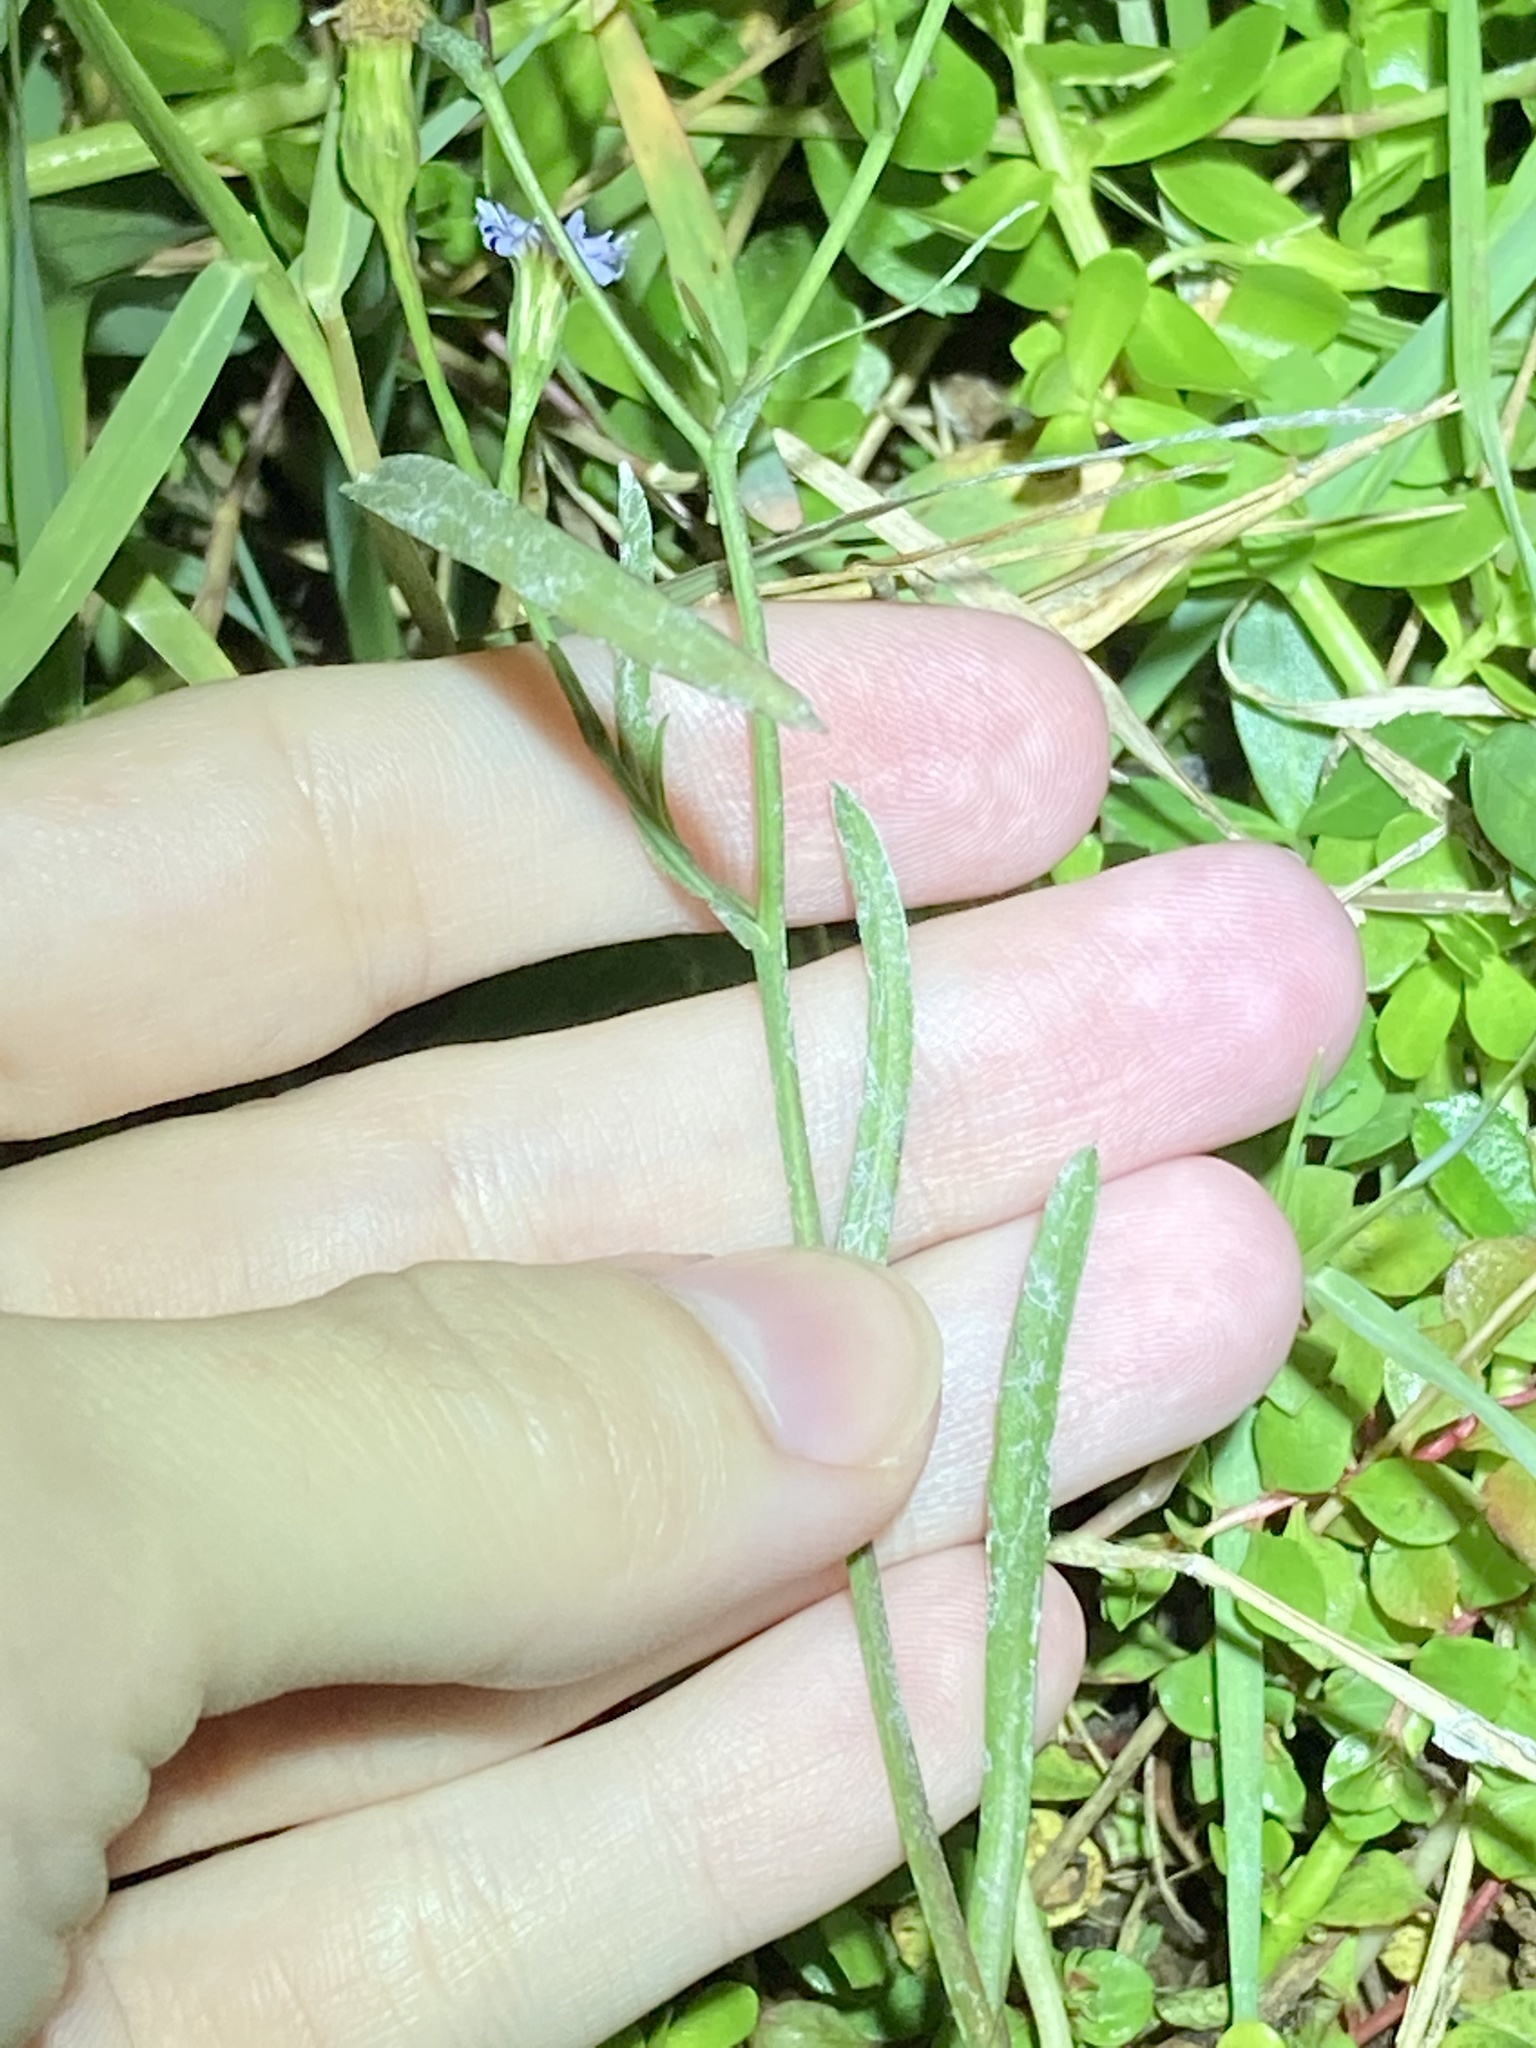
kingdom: Plantae
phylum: Tracheophyta
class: Magnoliopsida
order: Asterales
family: Asteraceae
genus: Symphyotrichum
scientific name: Symphyotrichum subulatum
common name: Annual saltmarsh aster
